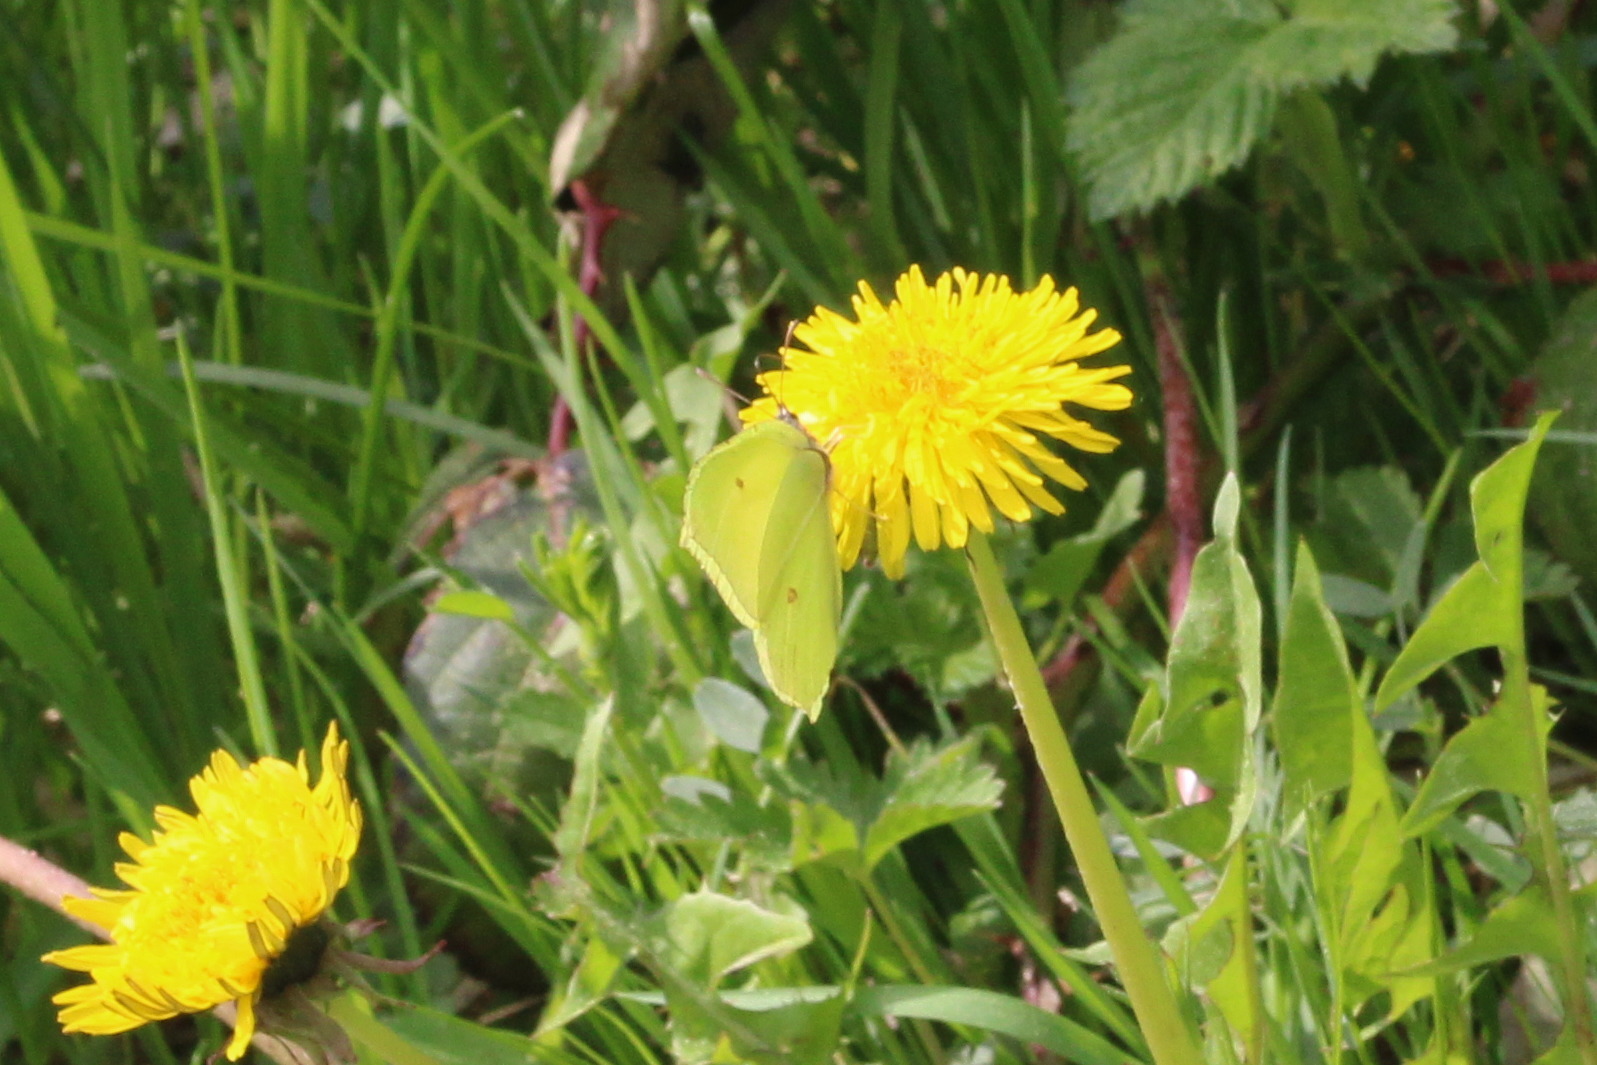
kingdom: Animalia
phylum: Arthropoda
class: Insecta
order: Lepidoptera
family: Pieridae
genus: Gonepteryx
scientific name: Gonepteryx rhamni
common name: Brimstone
